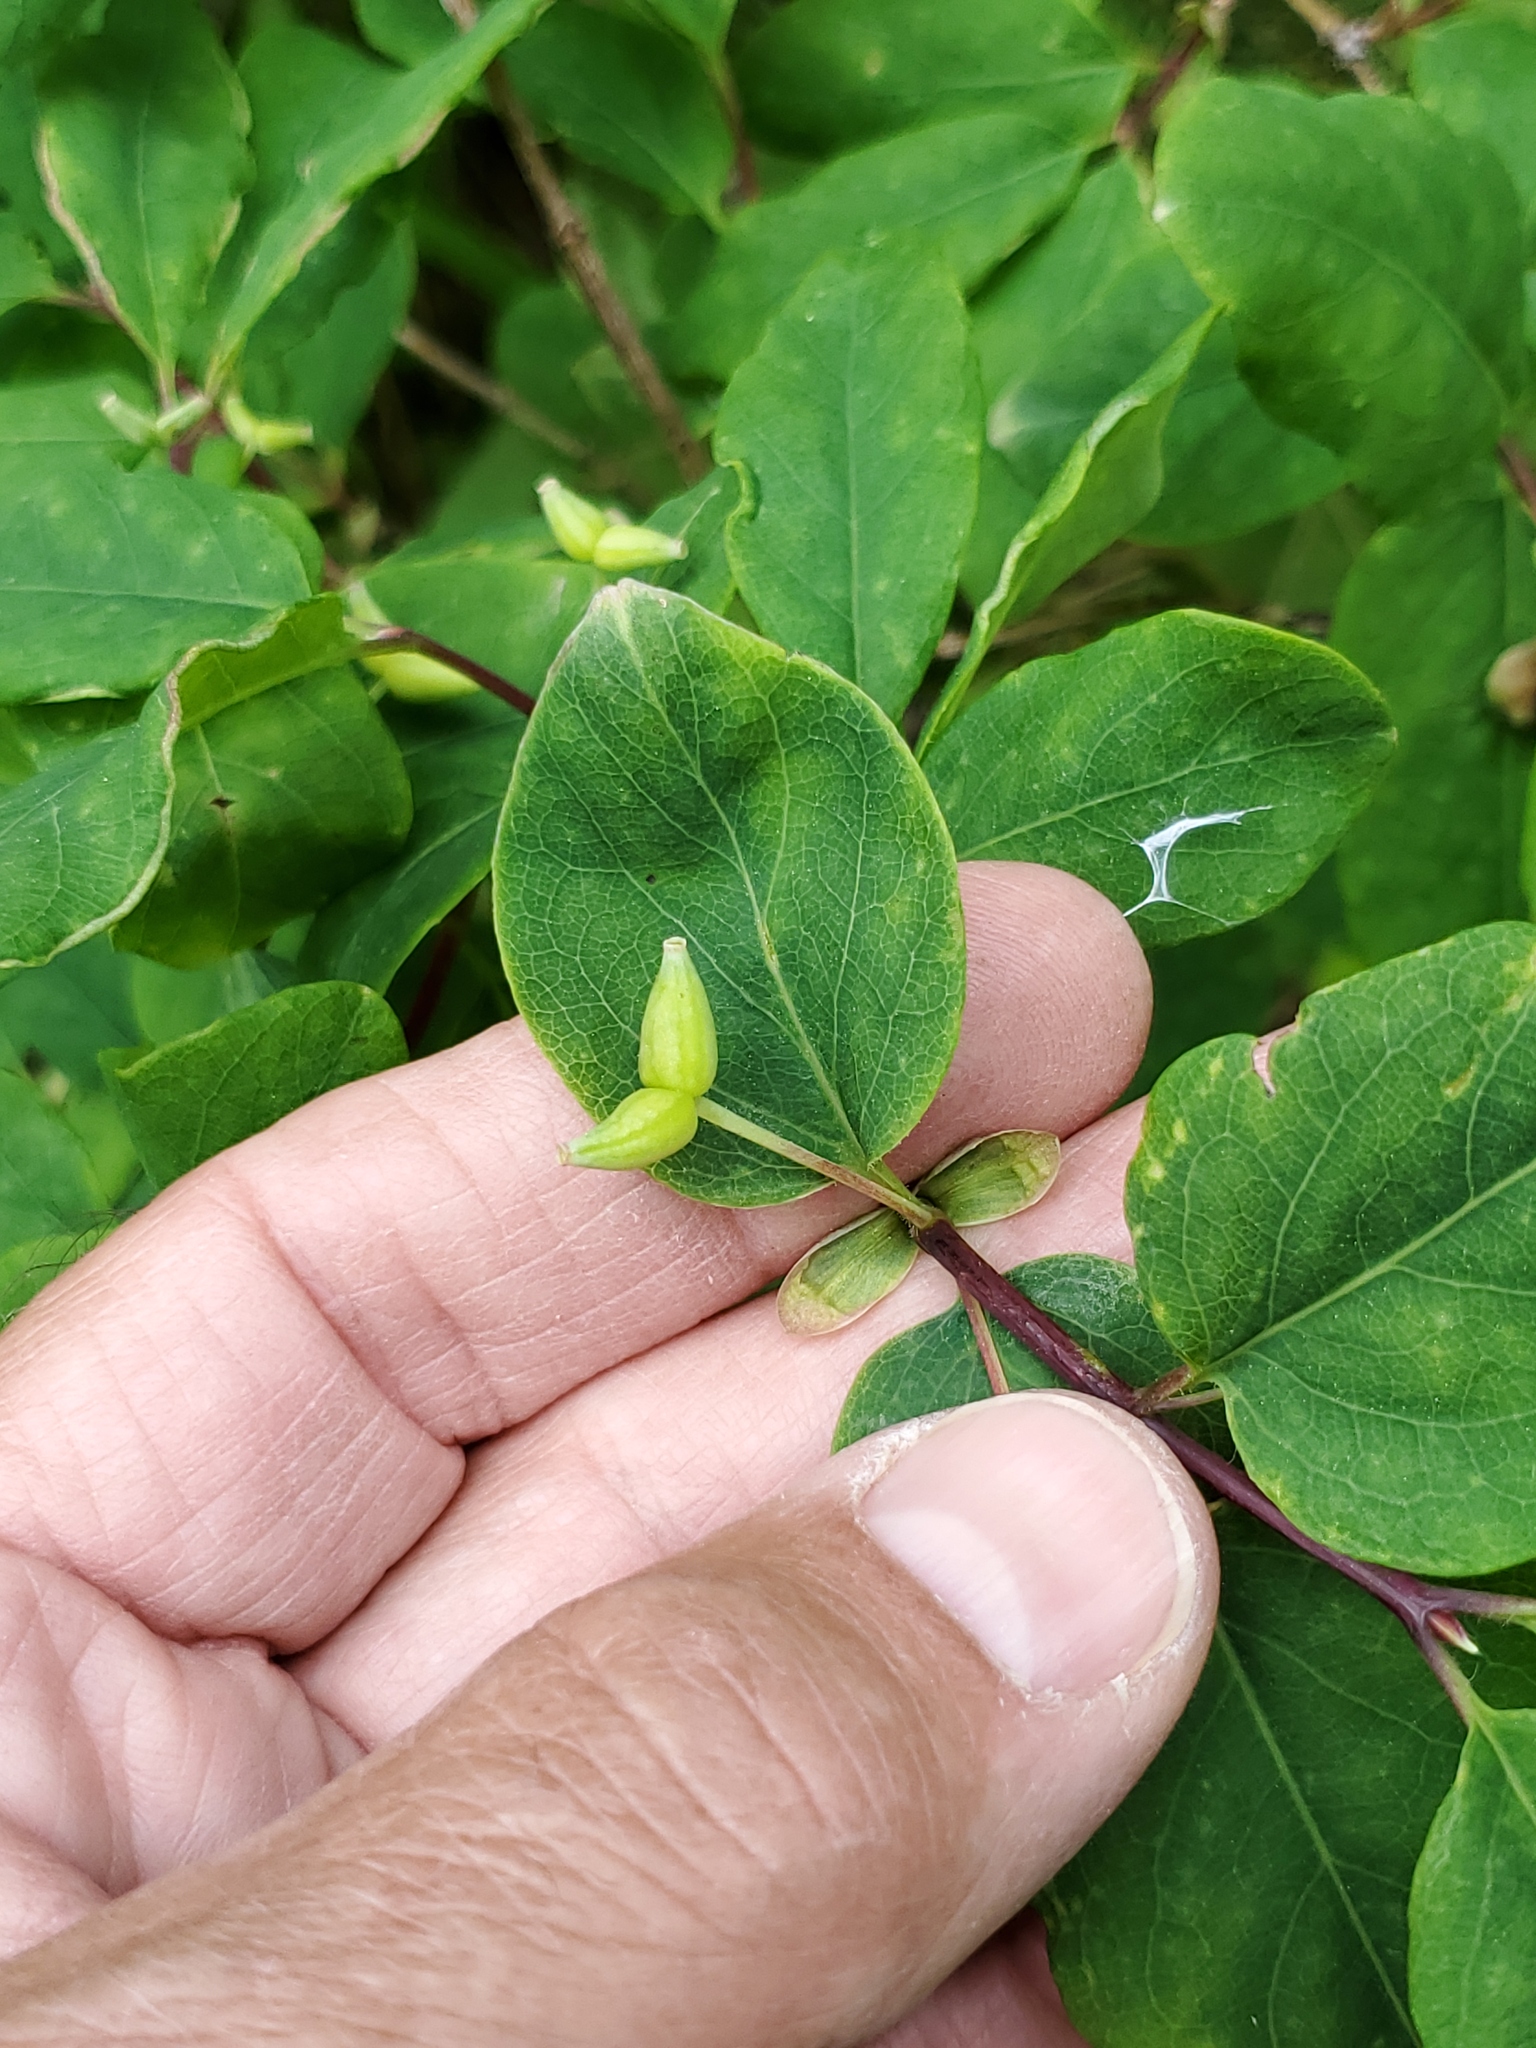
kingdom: Plantae
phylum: Tracheophyta
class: Magnoliopsida
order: Dipsacales
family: Caprifoliaceae
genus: Lonicera
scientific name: Lonicera utahensis
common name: Utah honeysuckle
